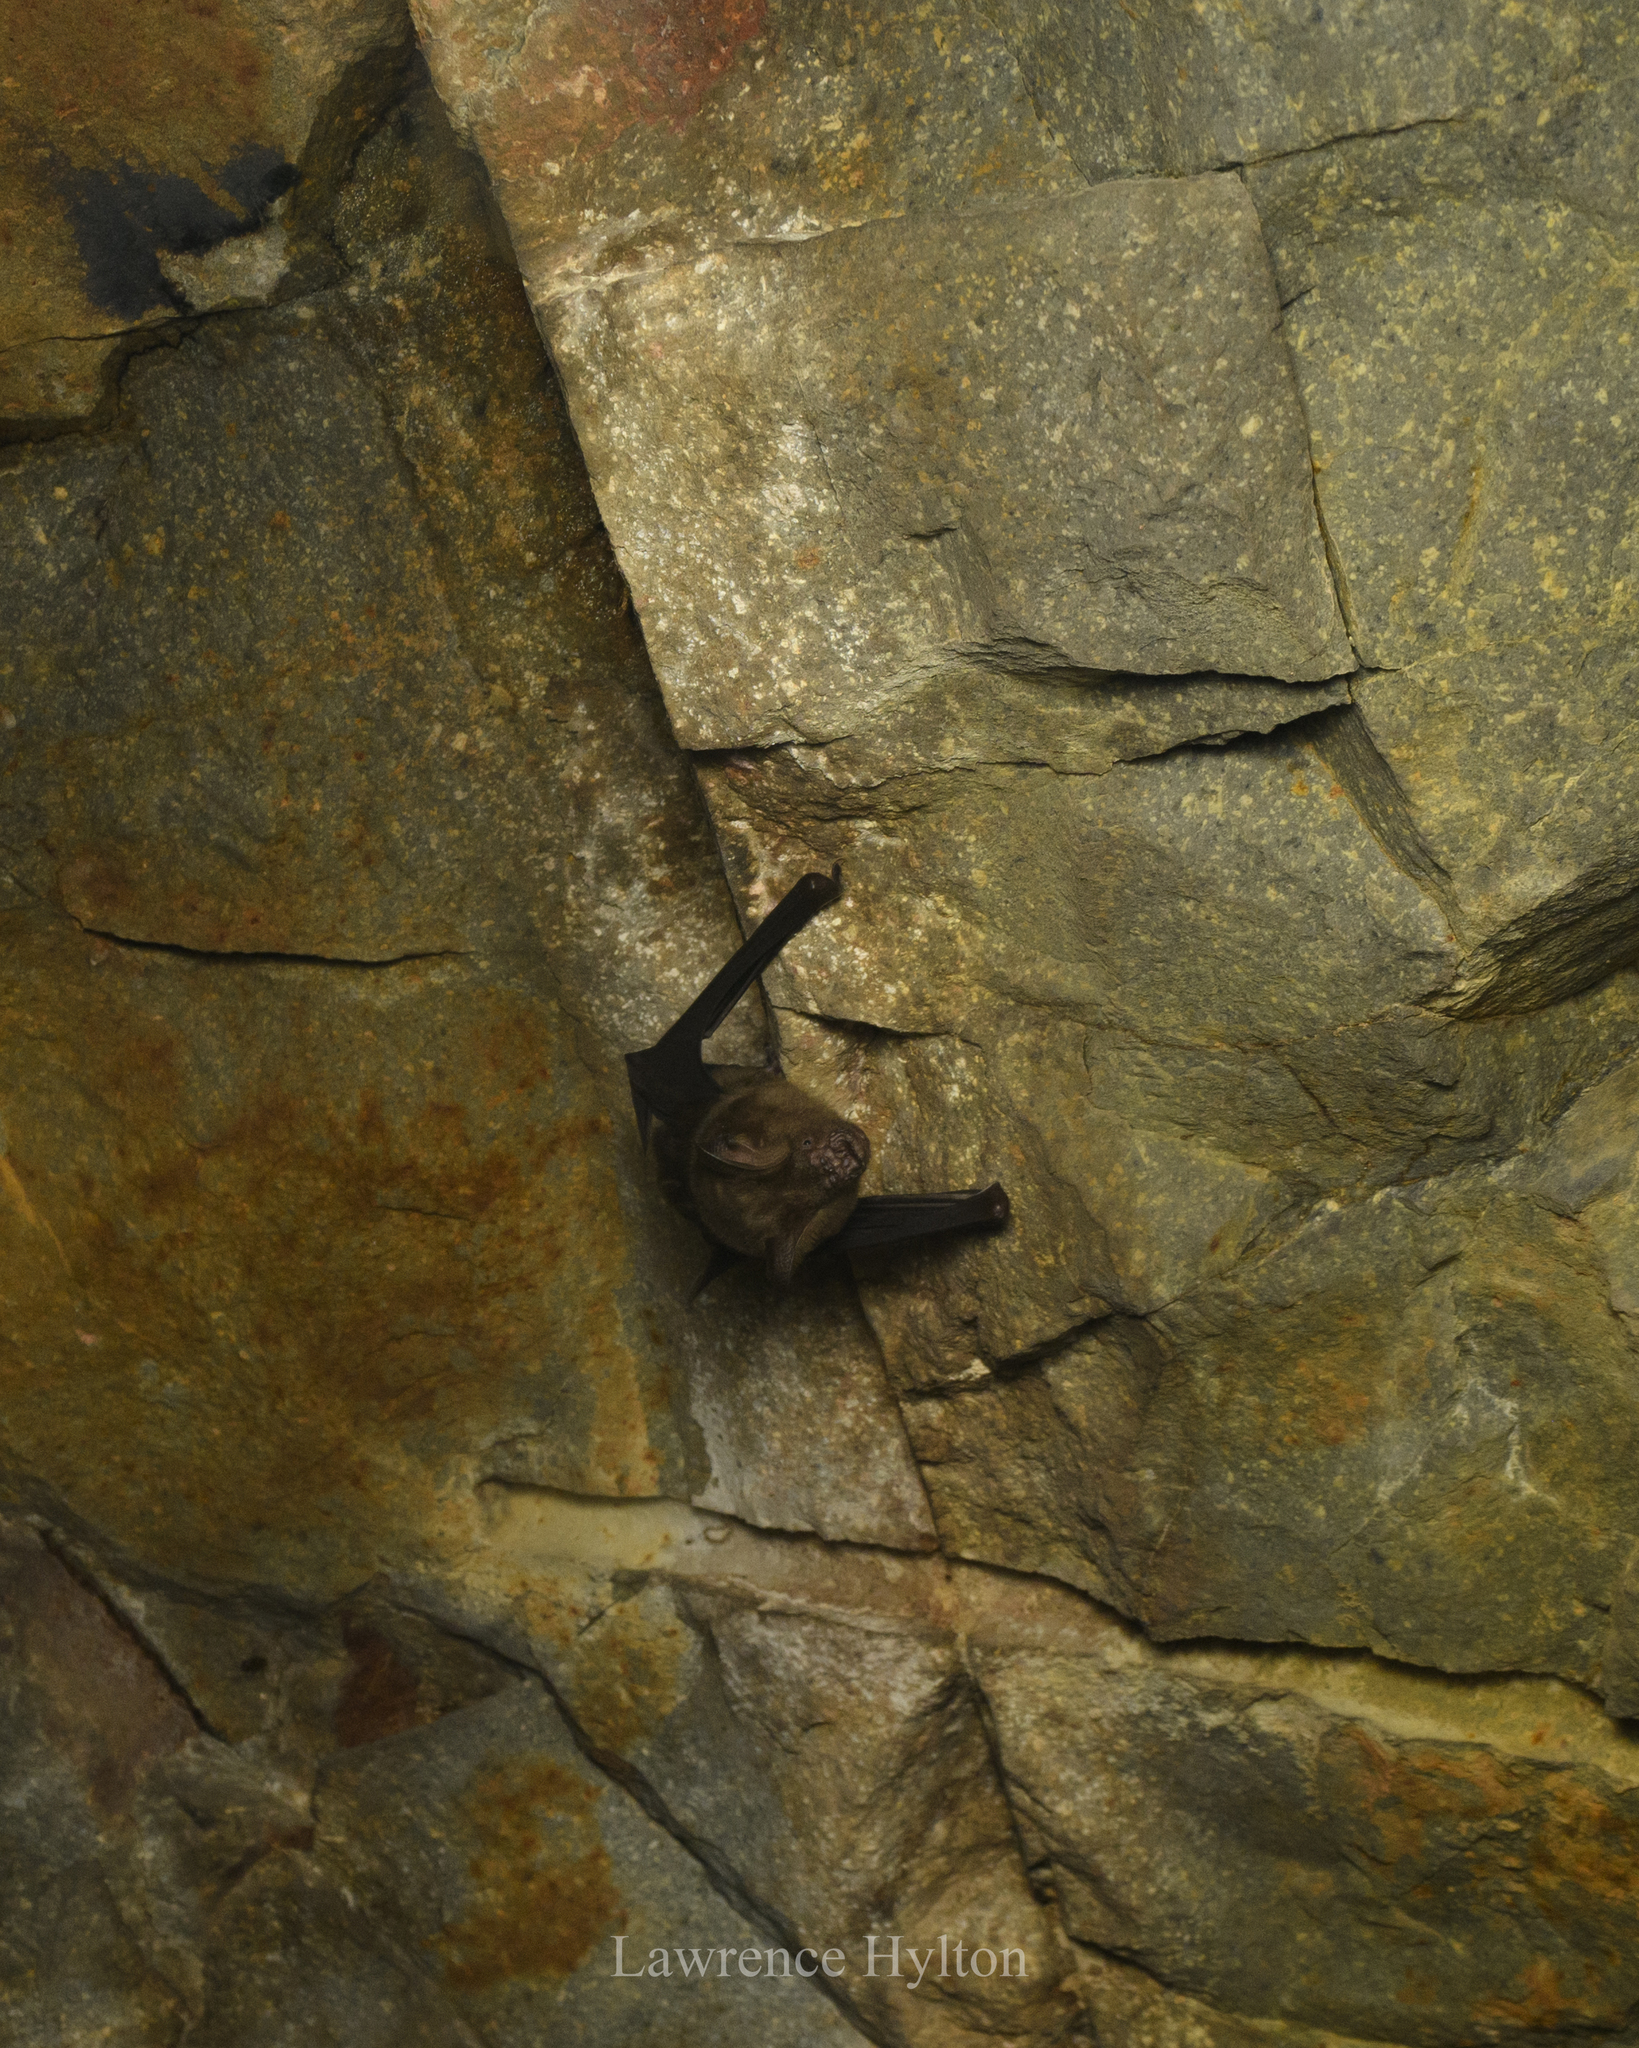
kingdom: Animalia
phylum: Chordata
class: Mammalia
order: Chiroptera
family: Hipposideridae
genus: Hipposideros
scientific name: Hipposideros armiger
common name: Great leaf-nosed bat
